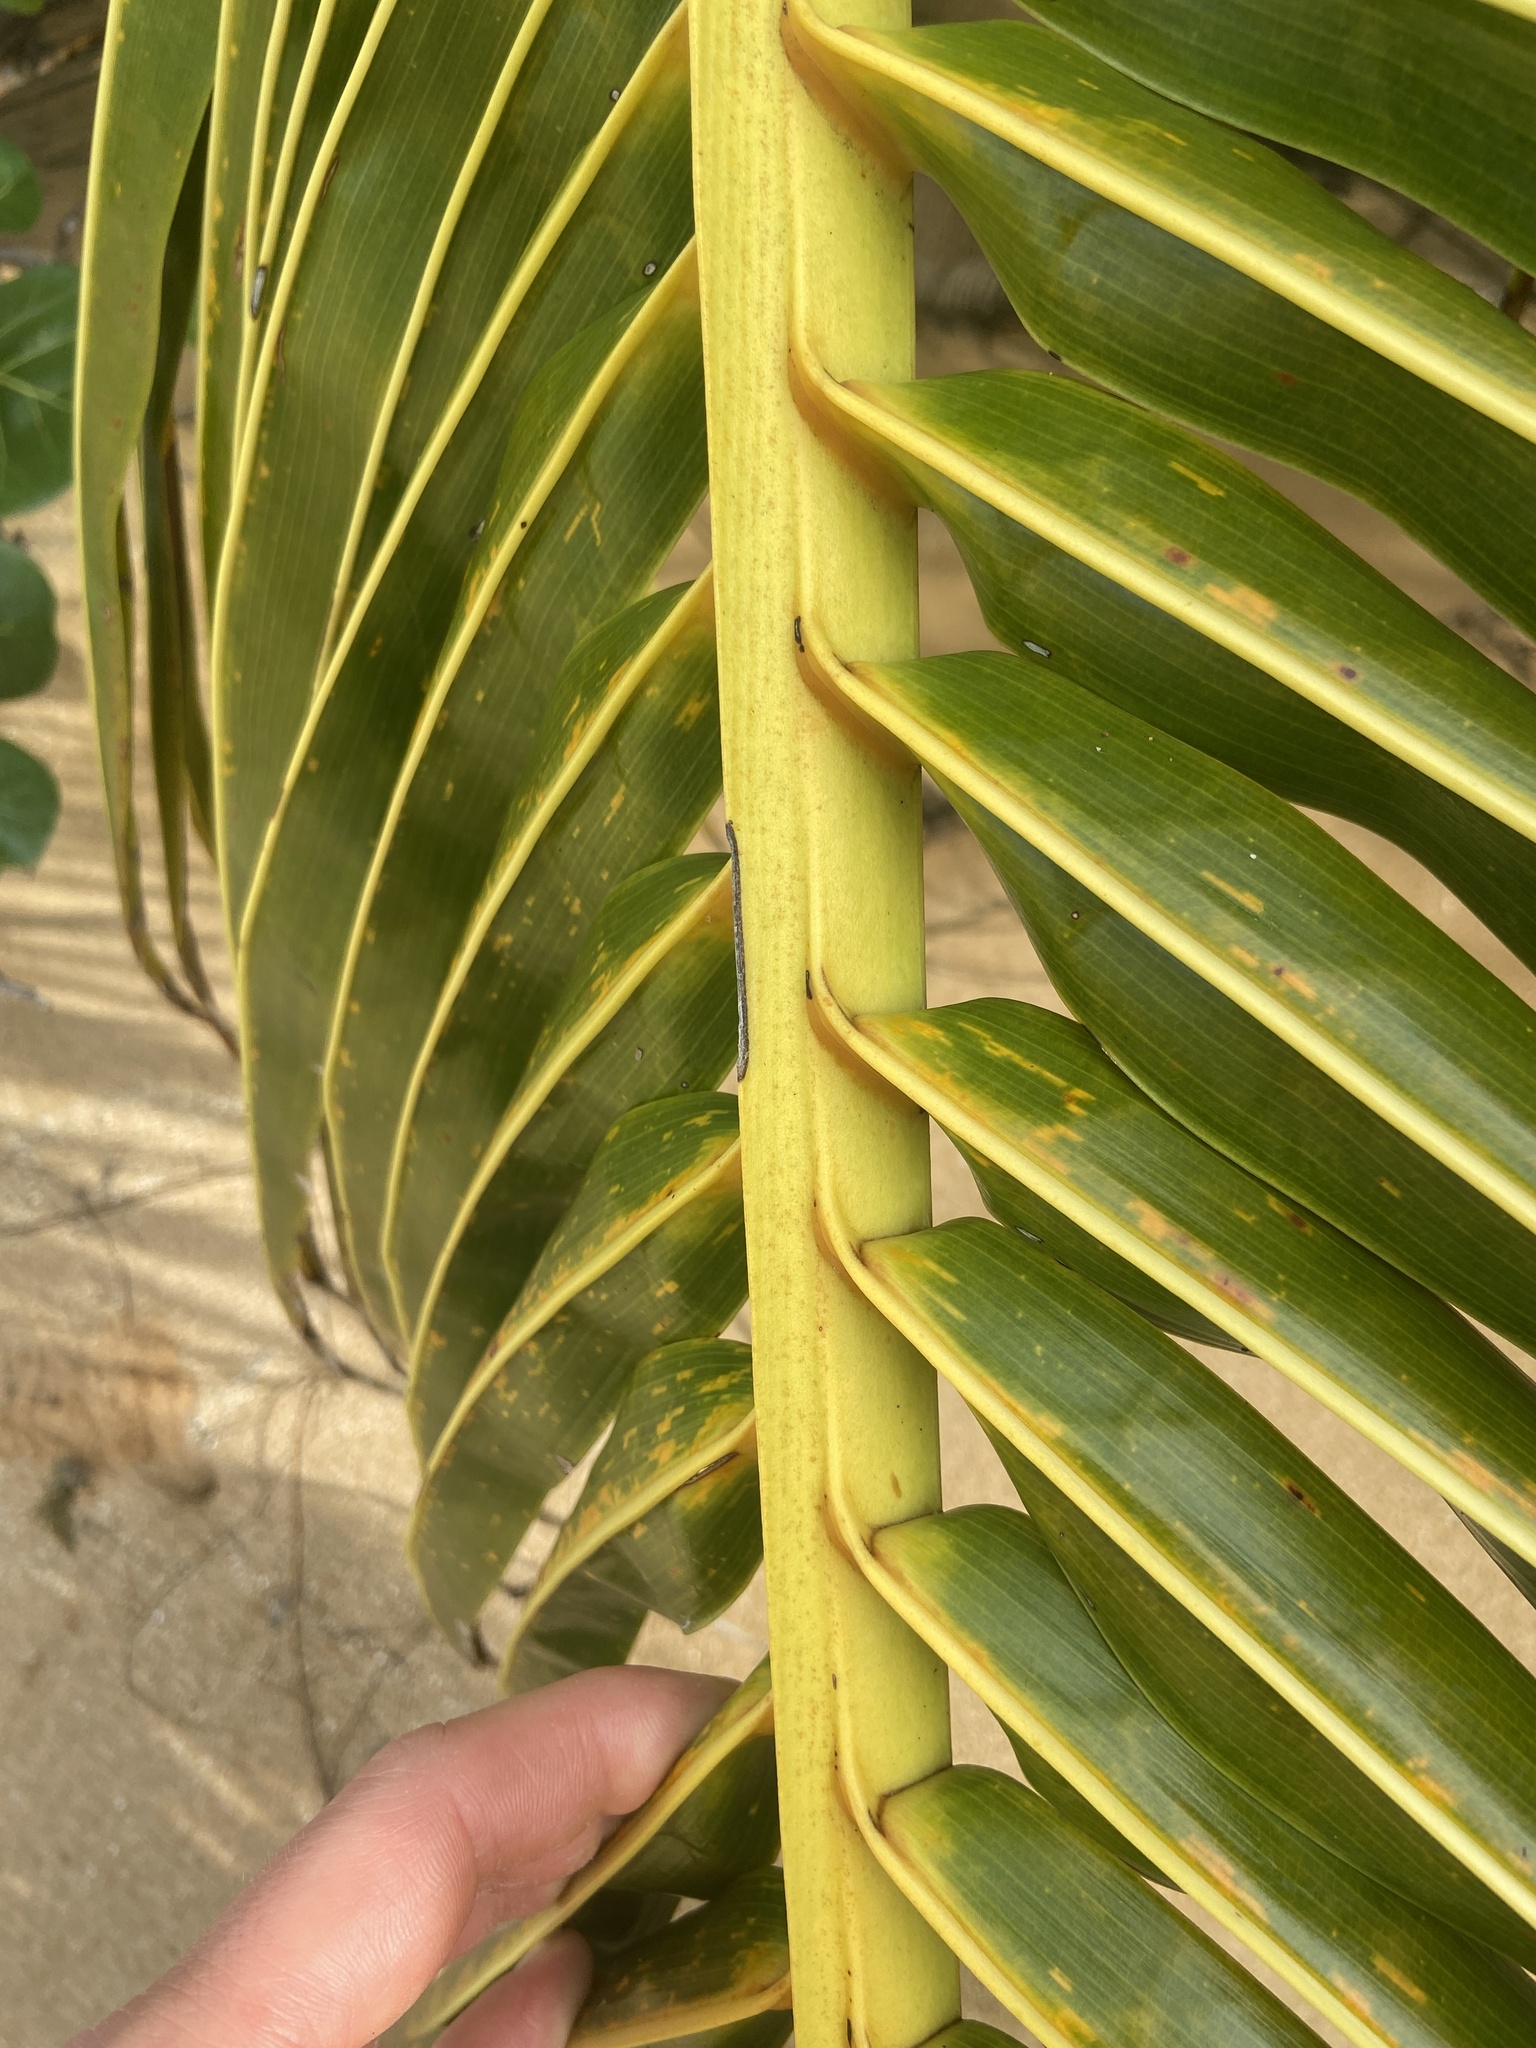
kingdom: Plantae
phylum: Tracheophyta
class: Liliopsida
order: Arecales
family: Arecaceae
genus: Cocos
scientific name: Cocos nucifera
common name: Coconut palm
